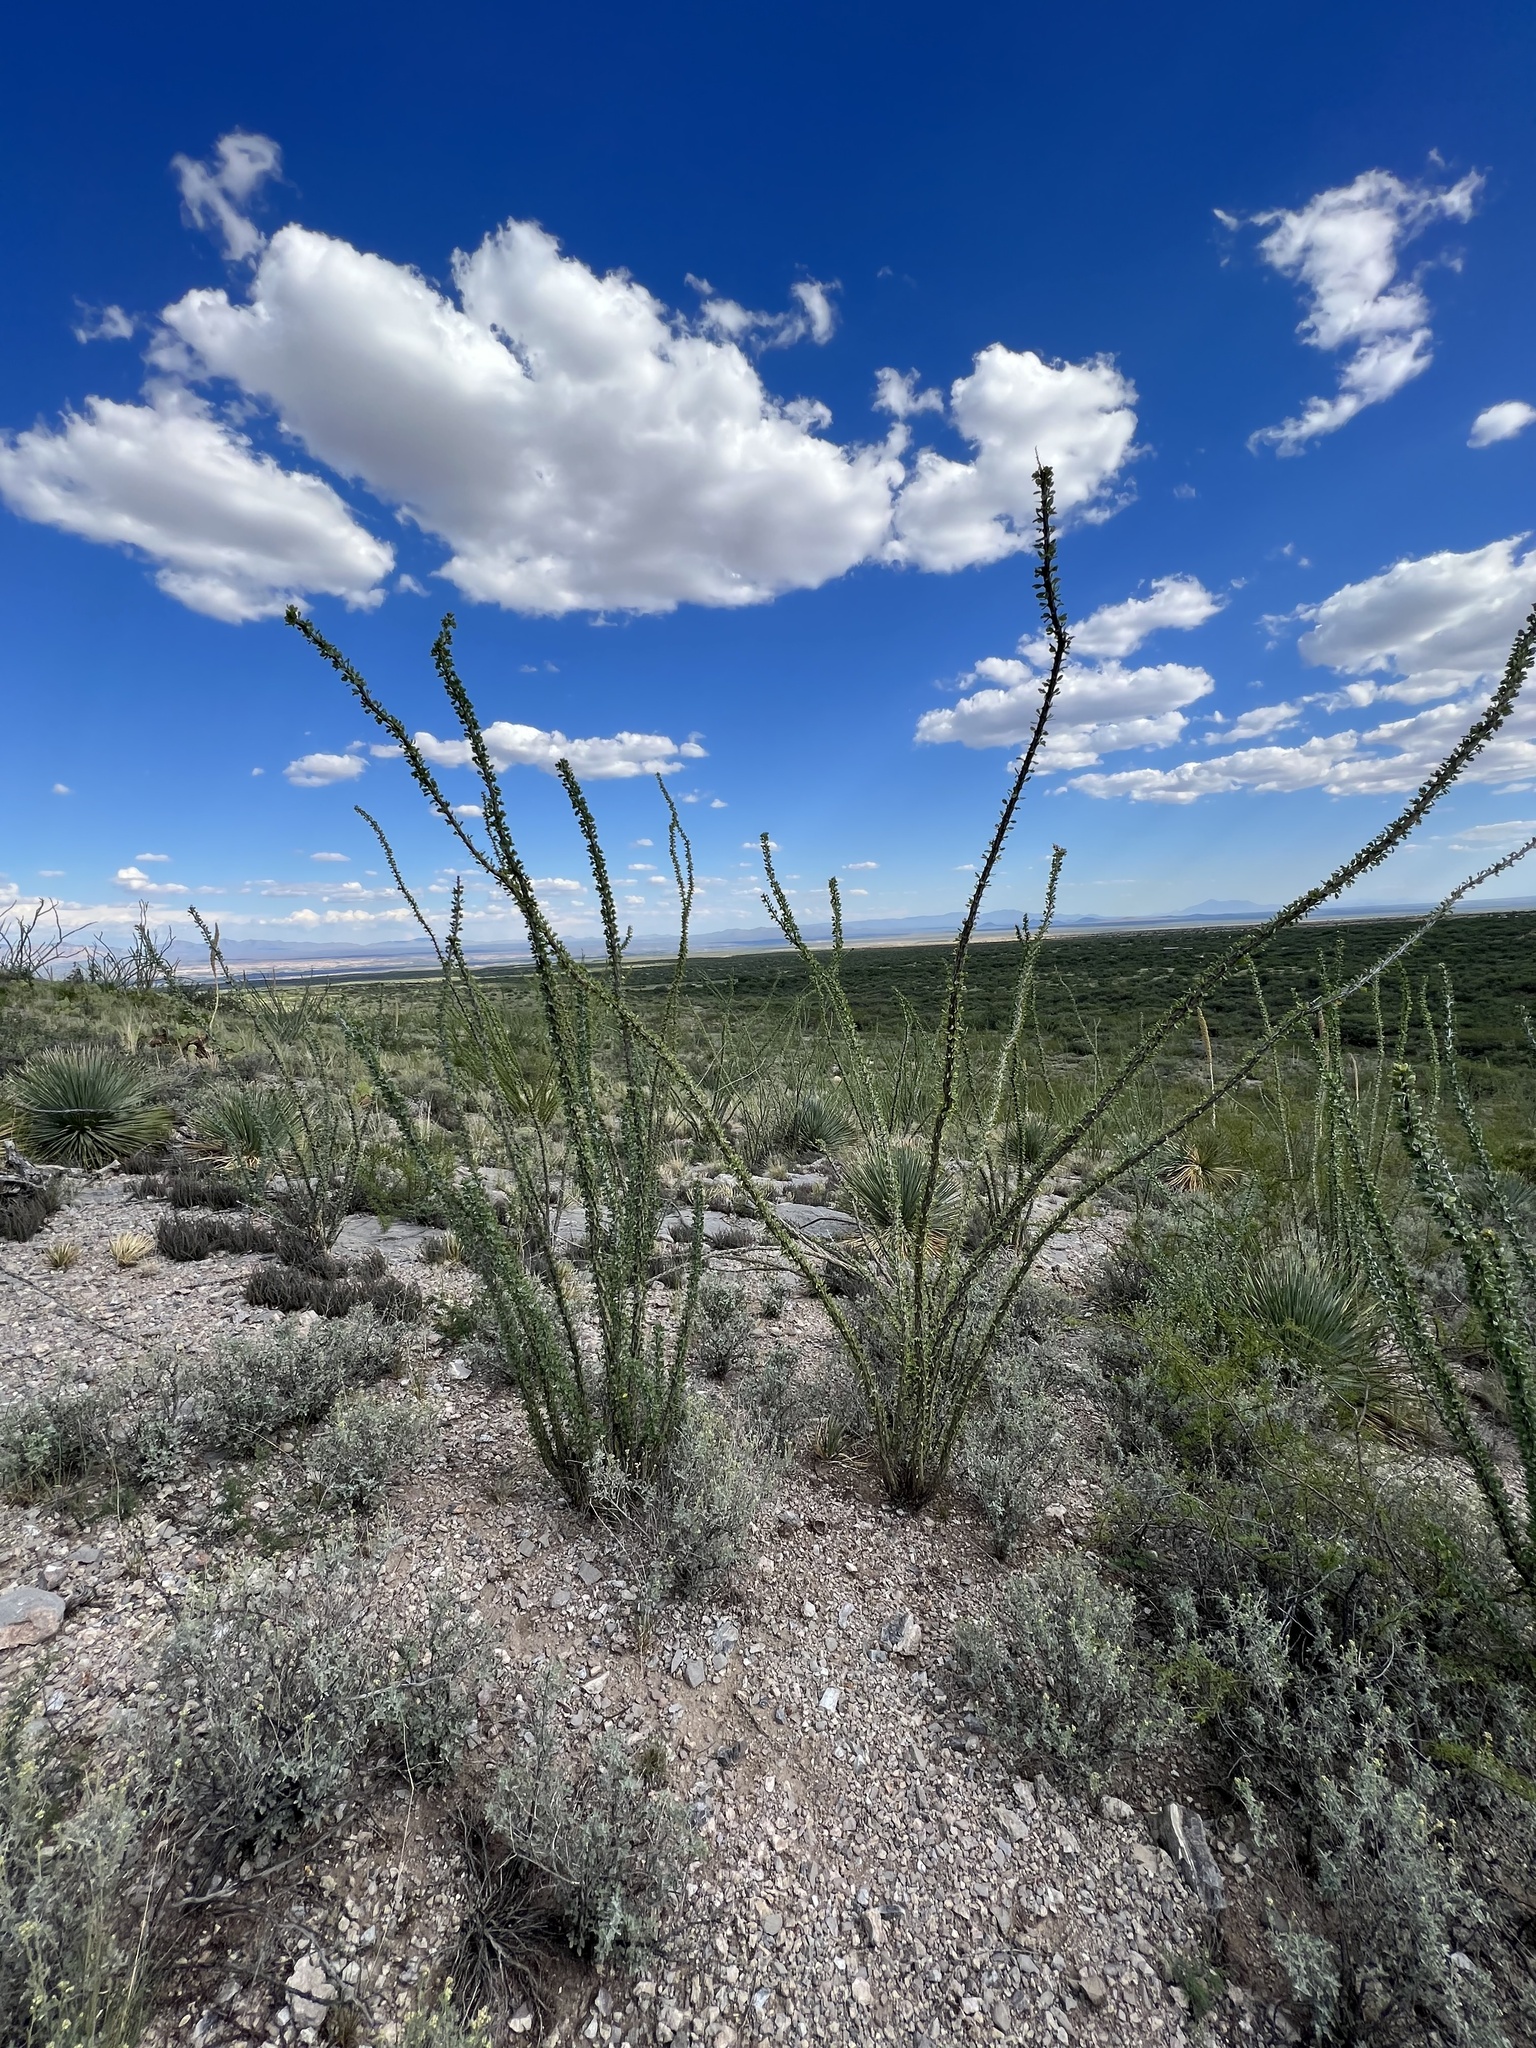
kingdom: Plantae
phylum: Tracheophyta
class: Magnoliopsida
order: Ericales
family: Fouquieriaceae
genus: Fouquieria
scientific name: Fouquieria splendens
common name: Vine-cactus
